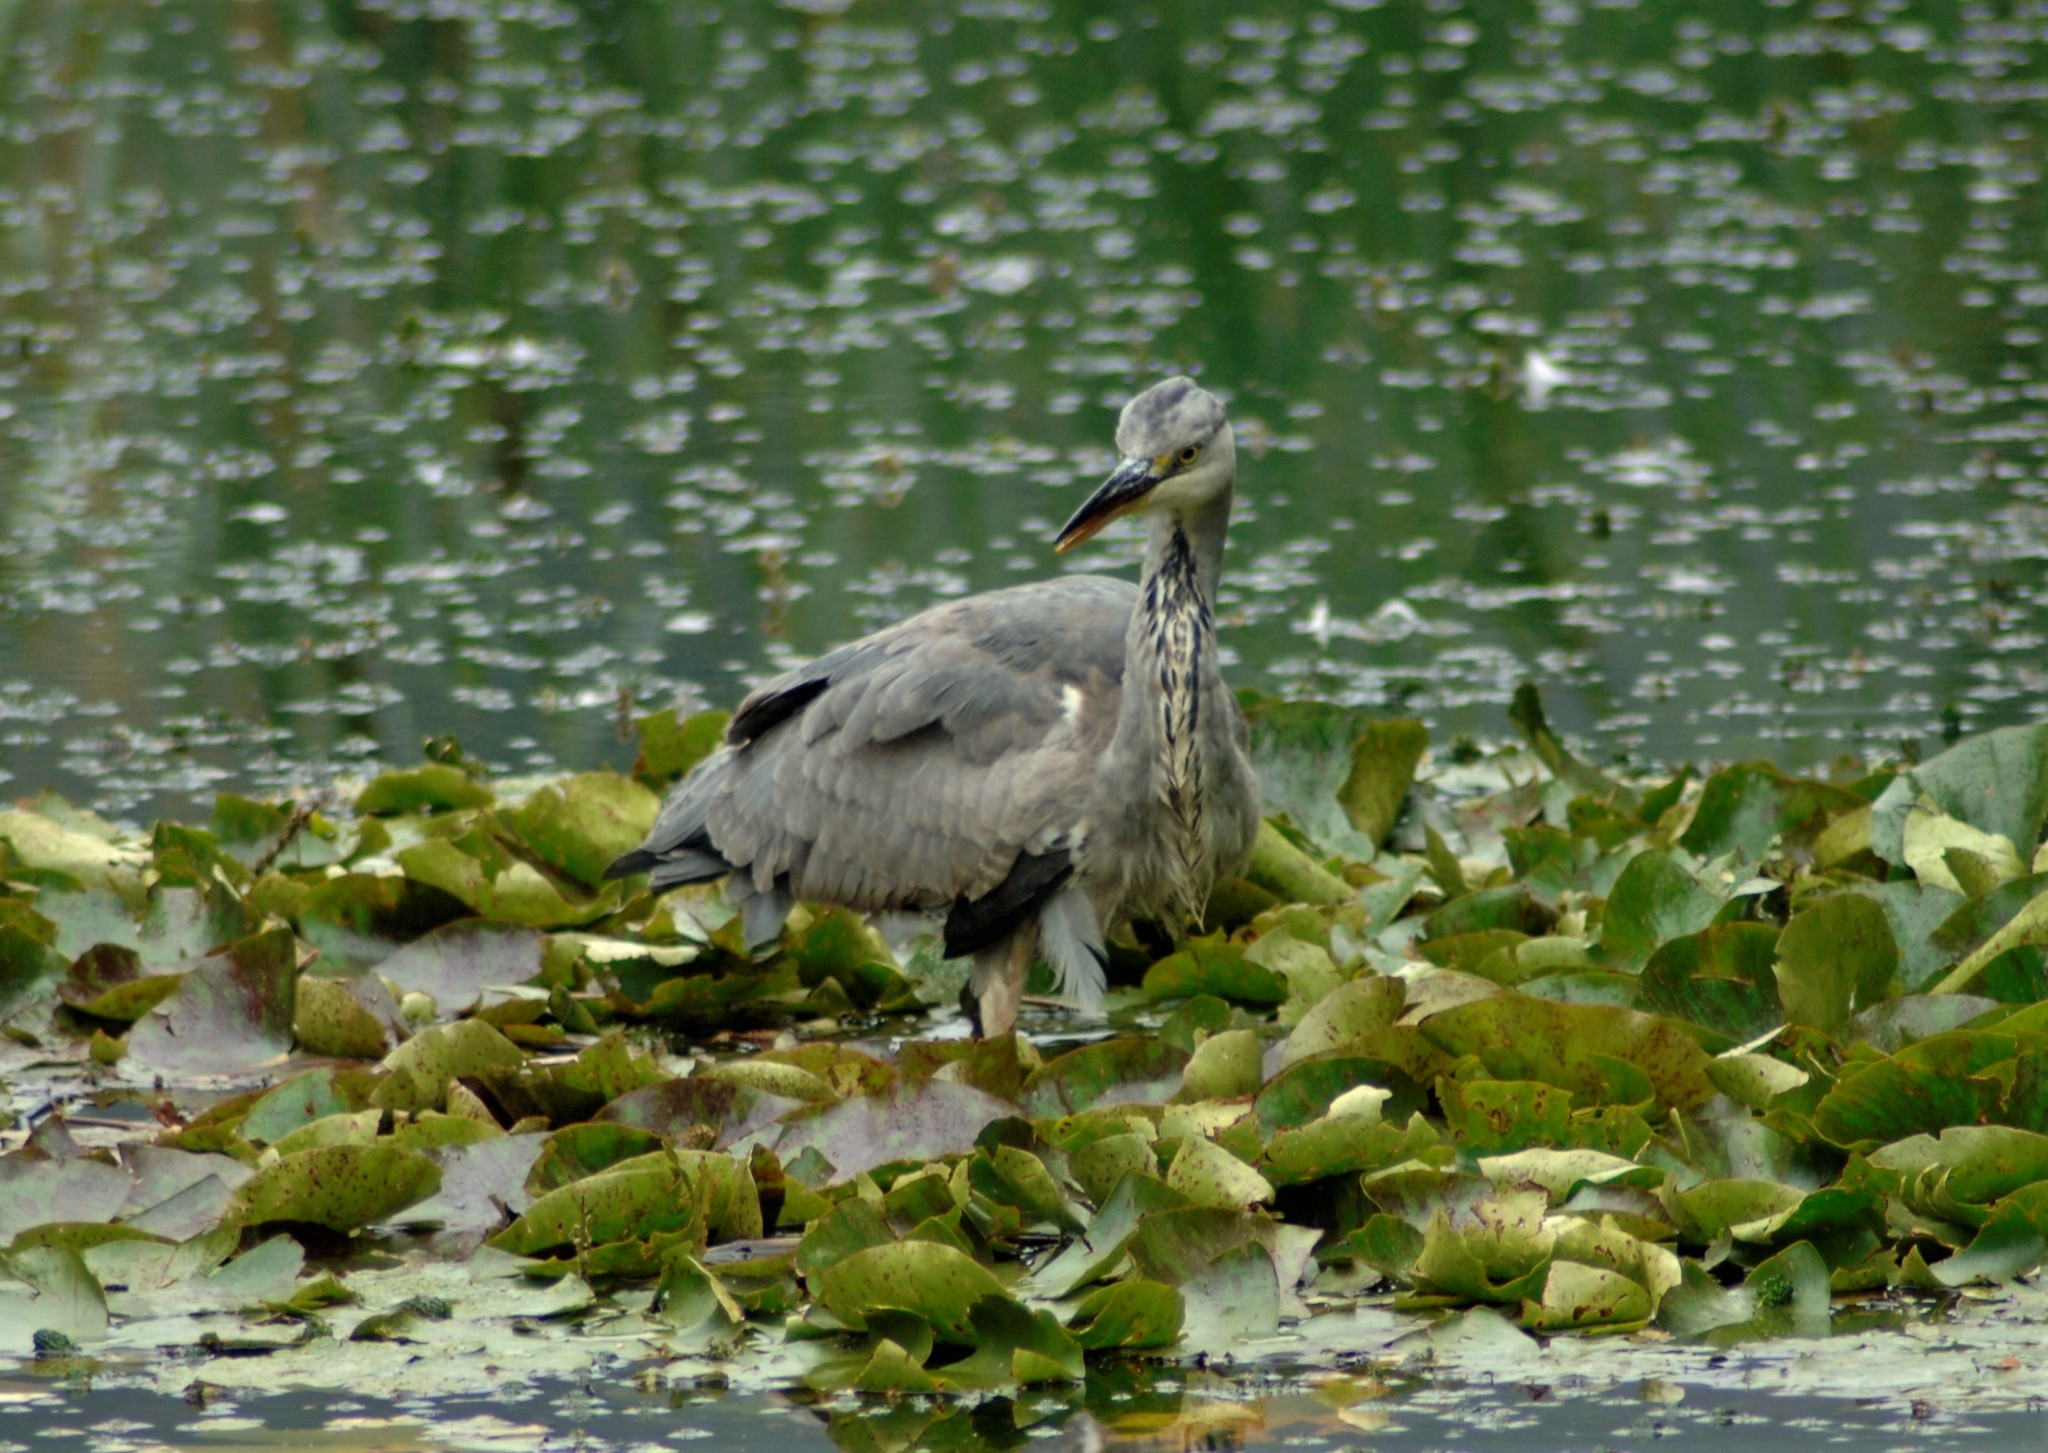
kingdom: Animalia
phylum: Chordata
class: Aves
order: Pelecaniformes
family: Ardeidae
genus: Ardea
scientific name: Ardea cinerea
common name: Grey heron
